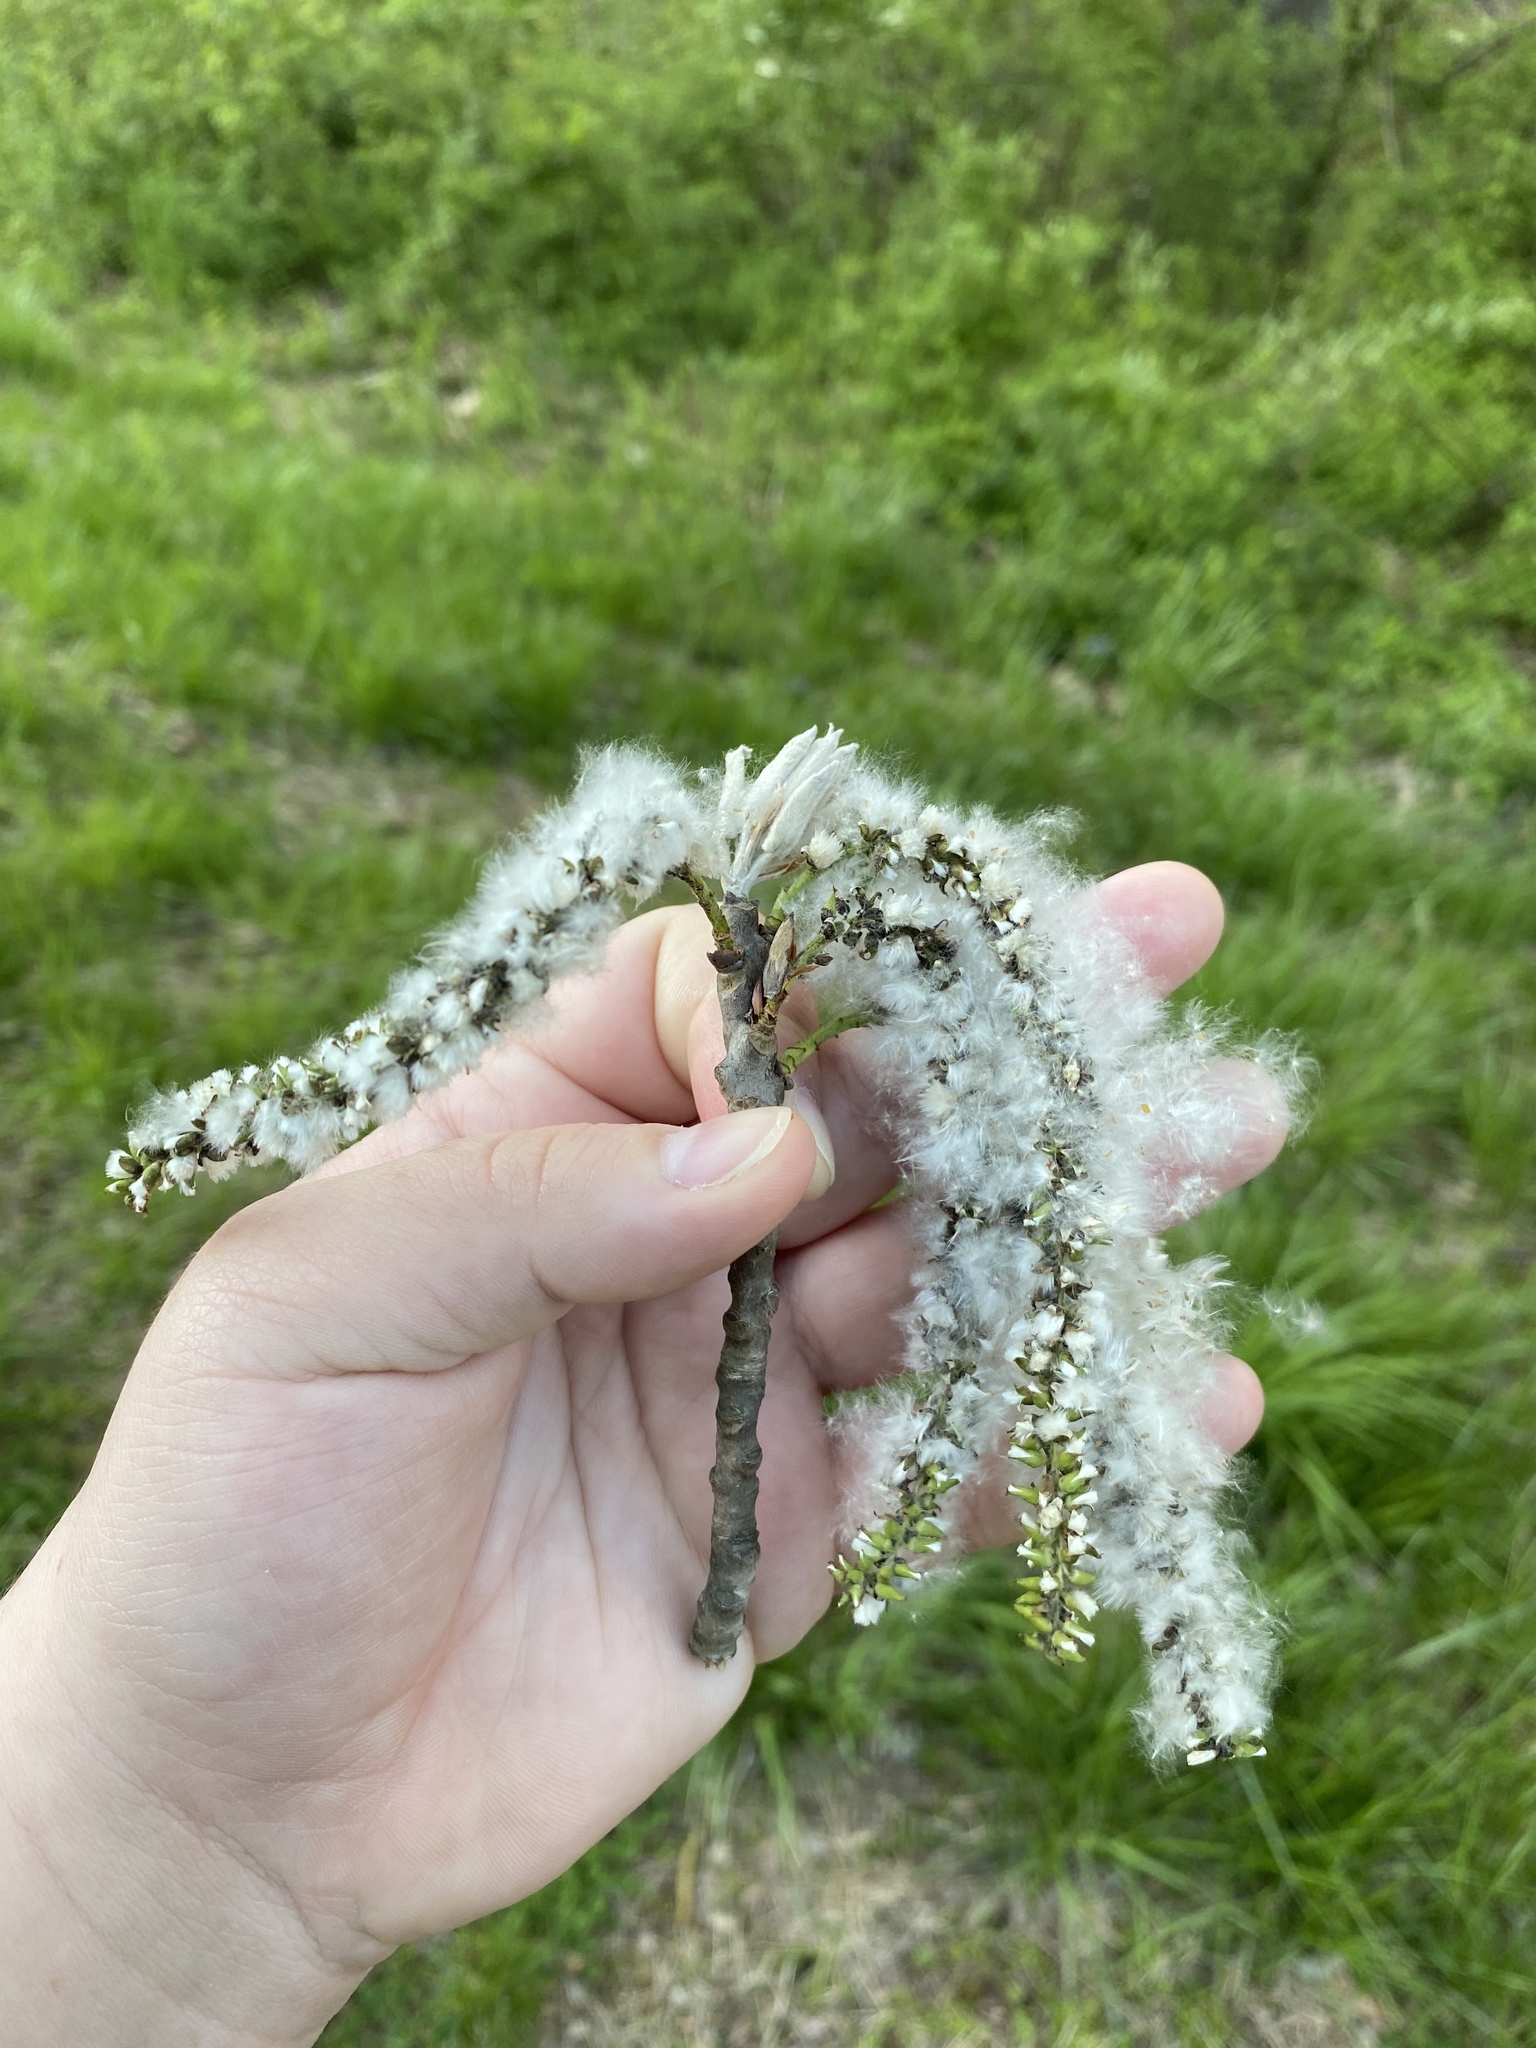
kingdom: Plantae
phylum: Tracheophyta
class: Magnoliopsida
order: Malpighiales
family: Salicaceae
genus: Populus
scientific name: Populus grandidentata
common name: Bigtooth aspen
